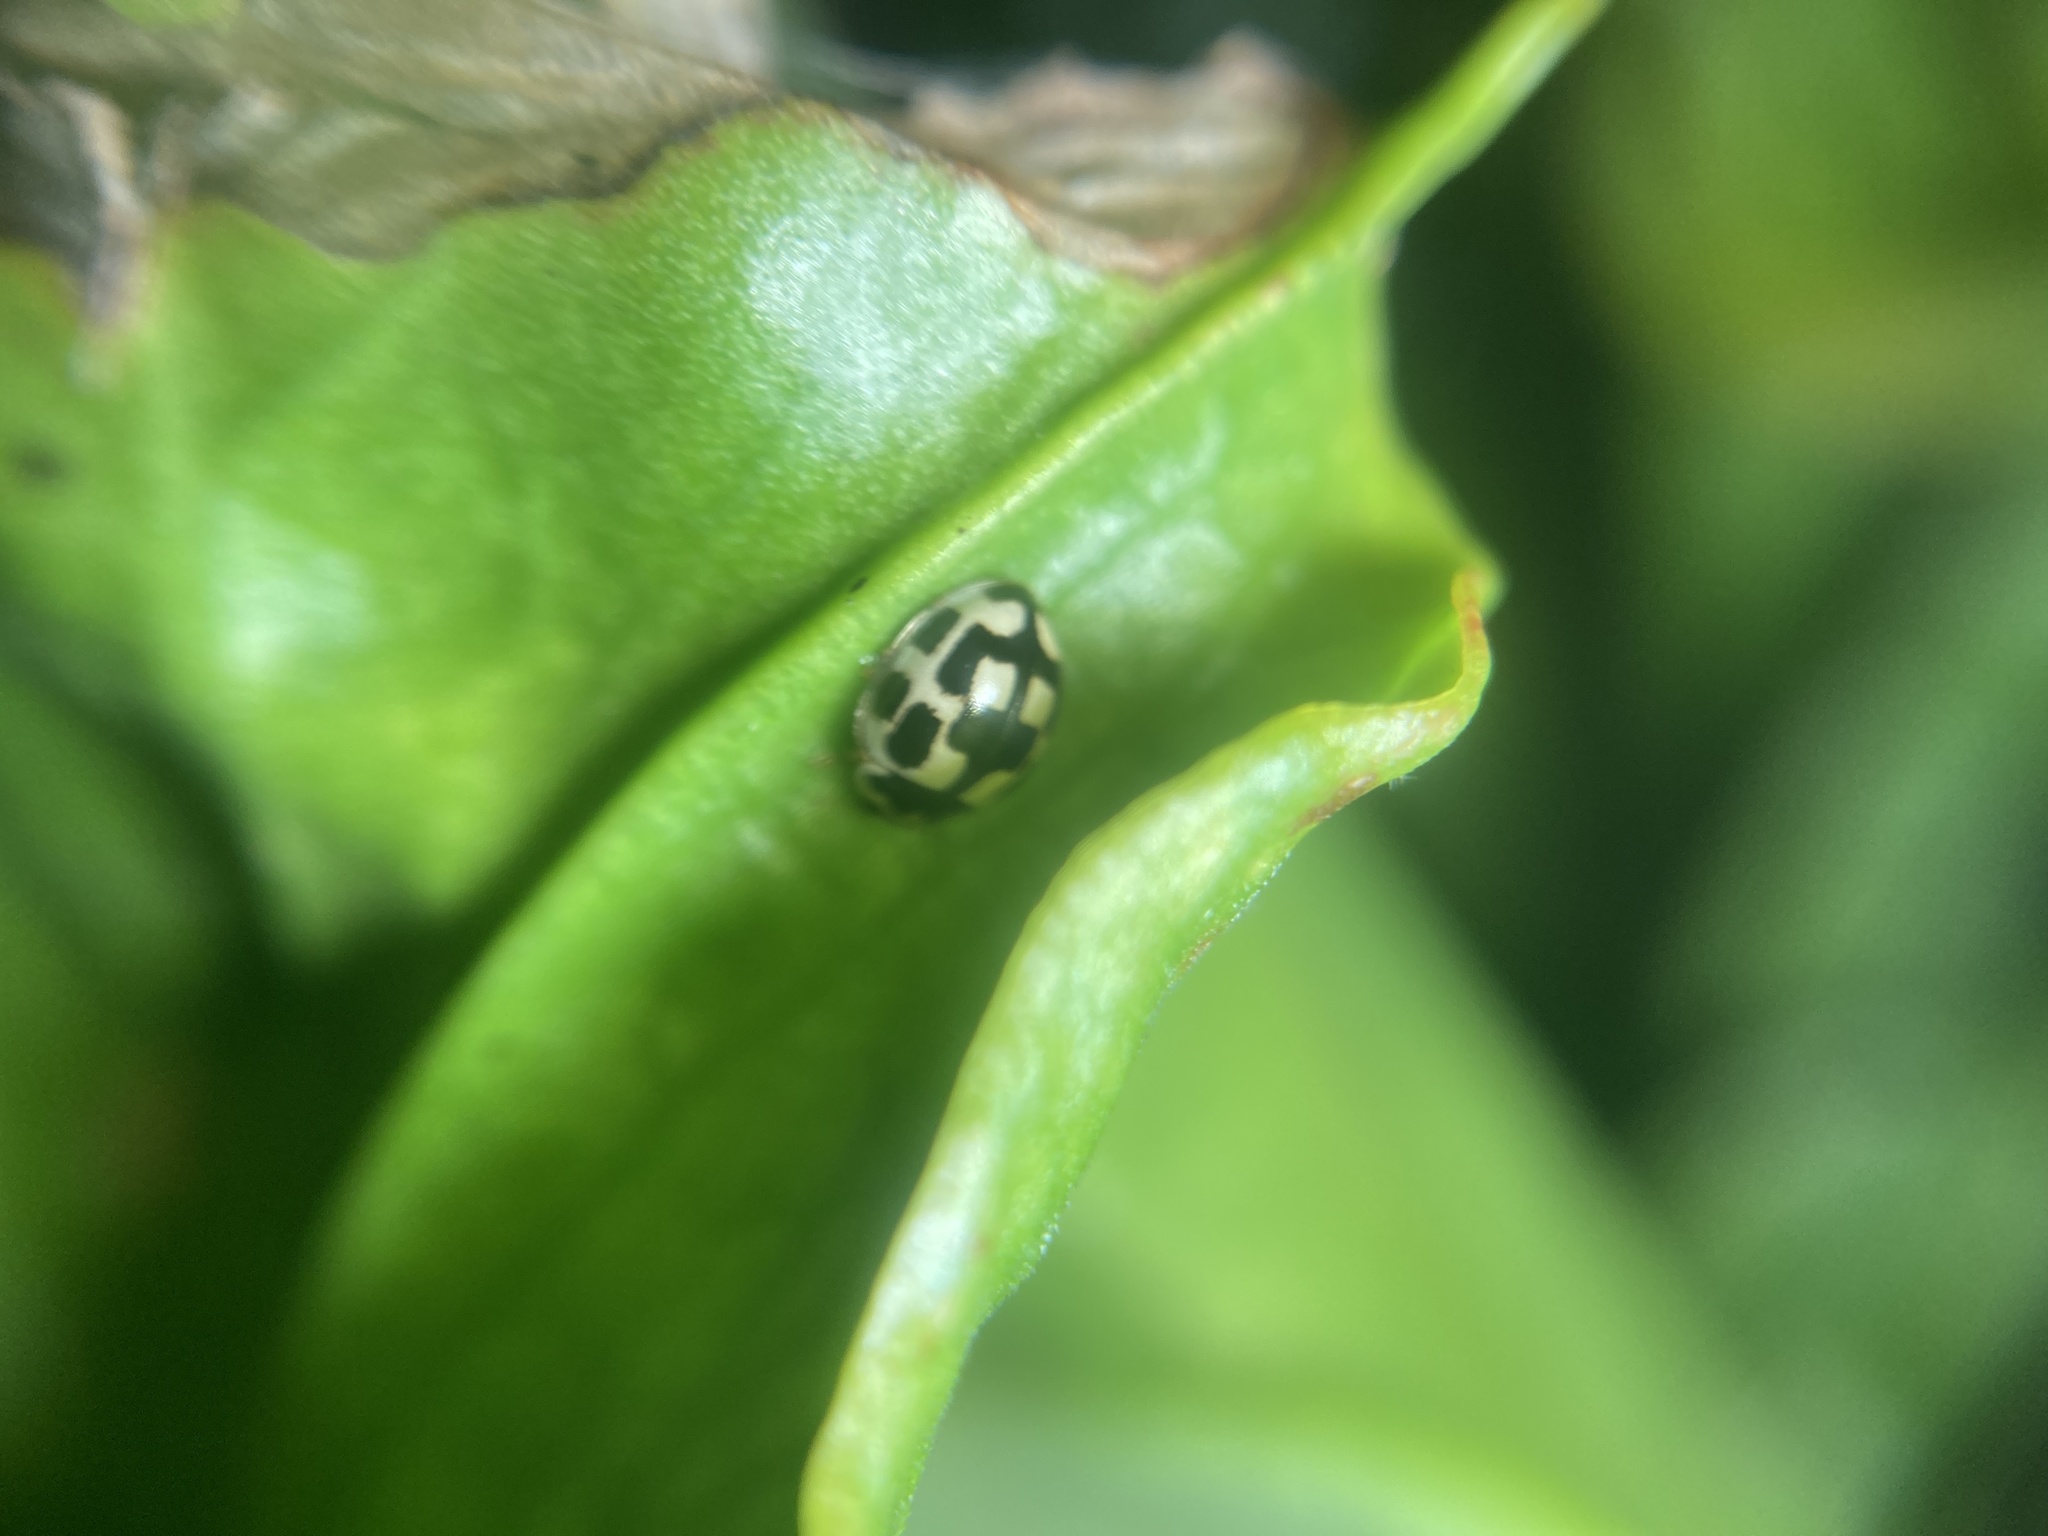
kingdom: Animalia
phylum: Arthropoda
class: Insecta
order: Coleoptera
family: Coccinellidae
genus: Propylaea
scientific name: Propylaea quatuordecimpunctata
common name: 14-spotted ladybird beetle
